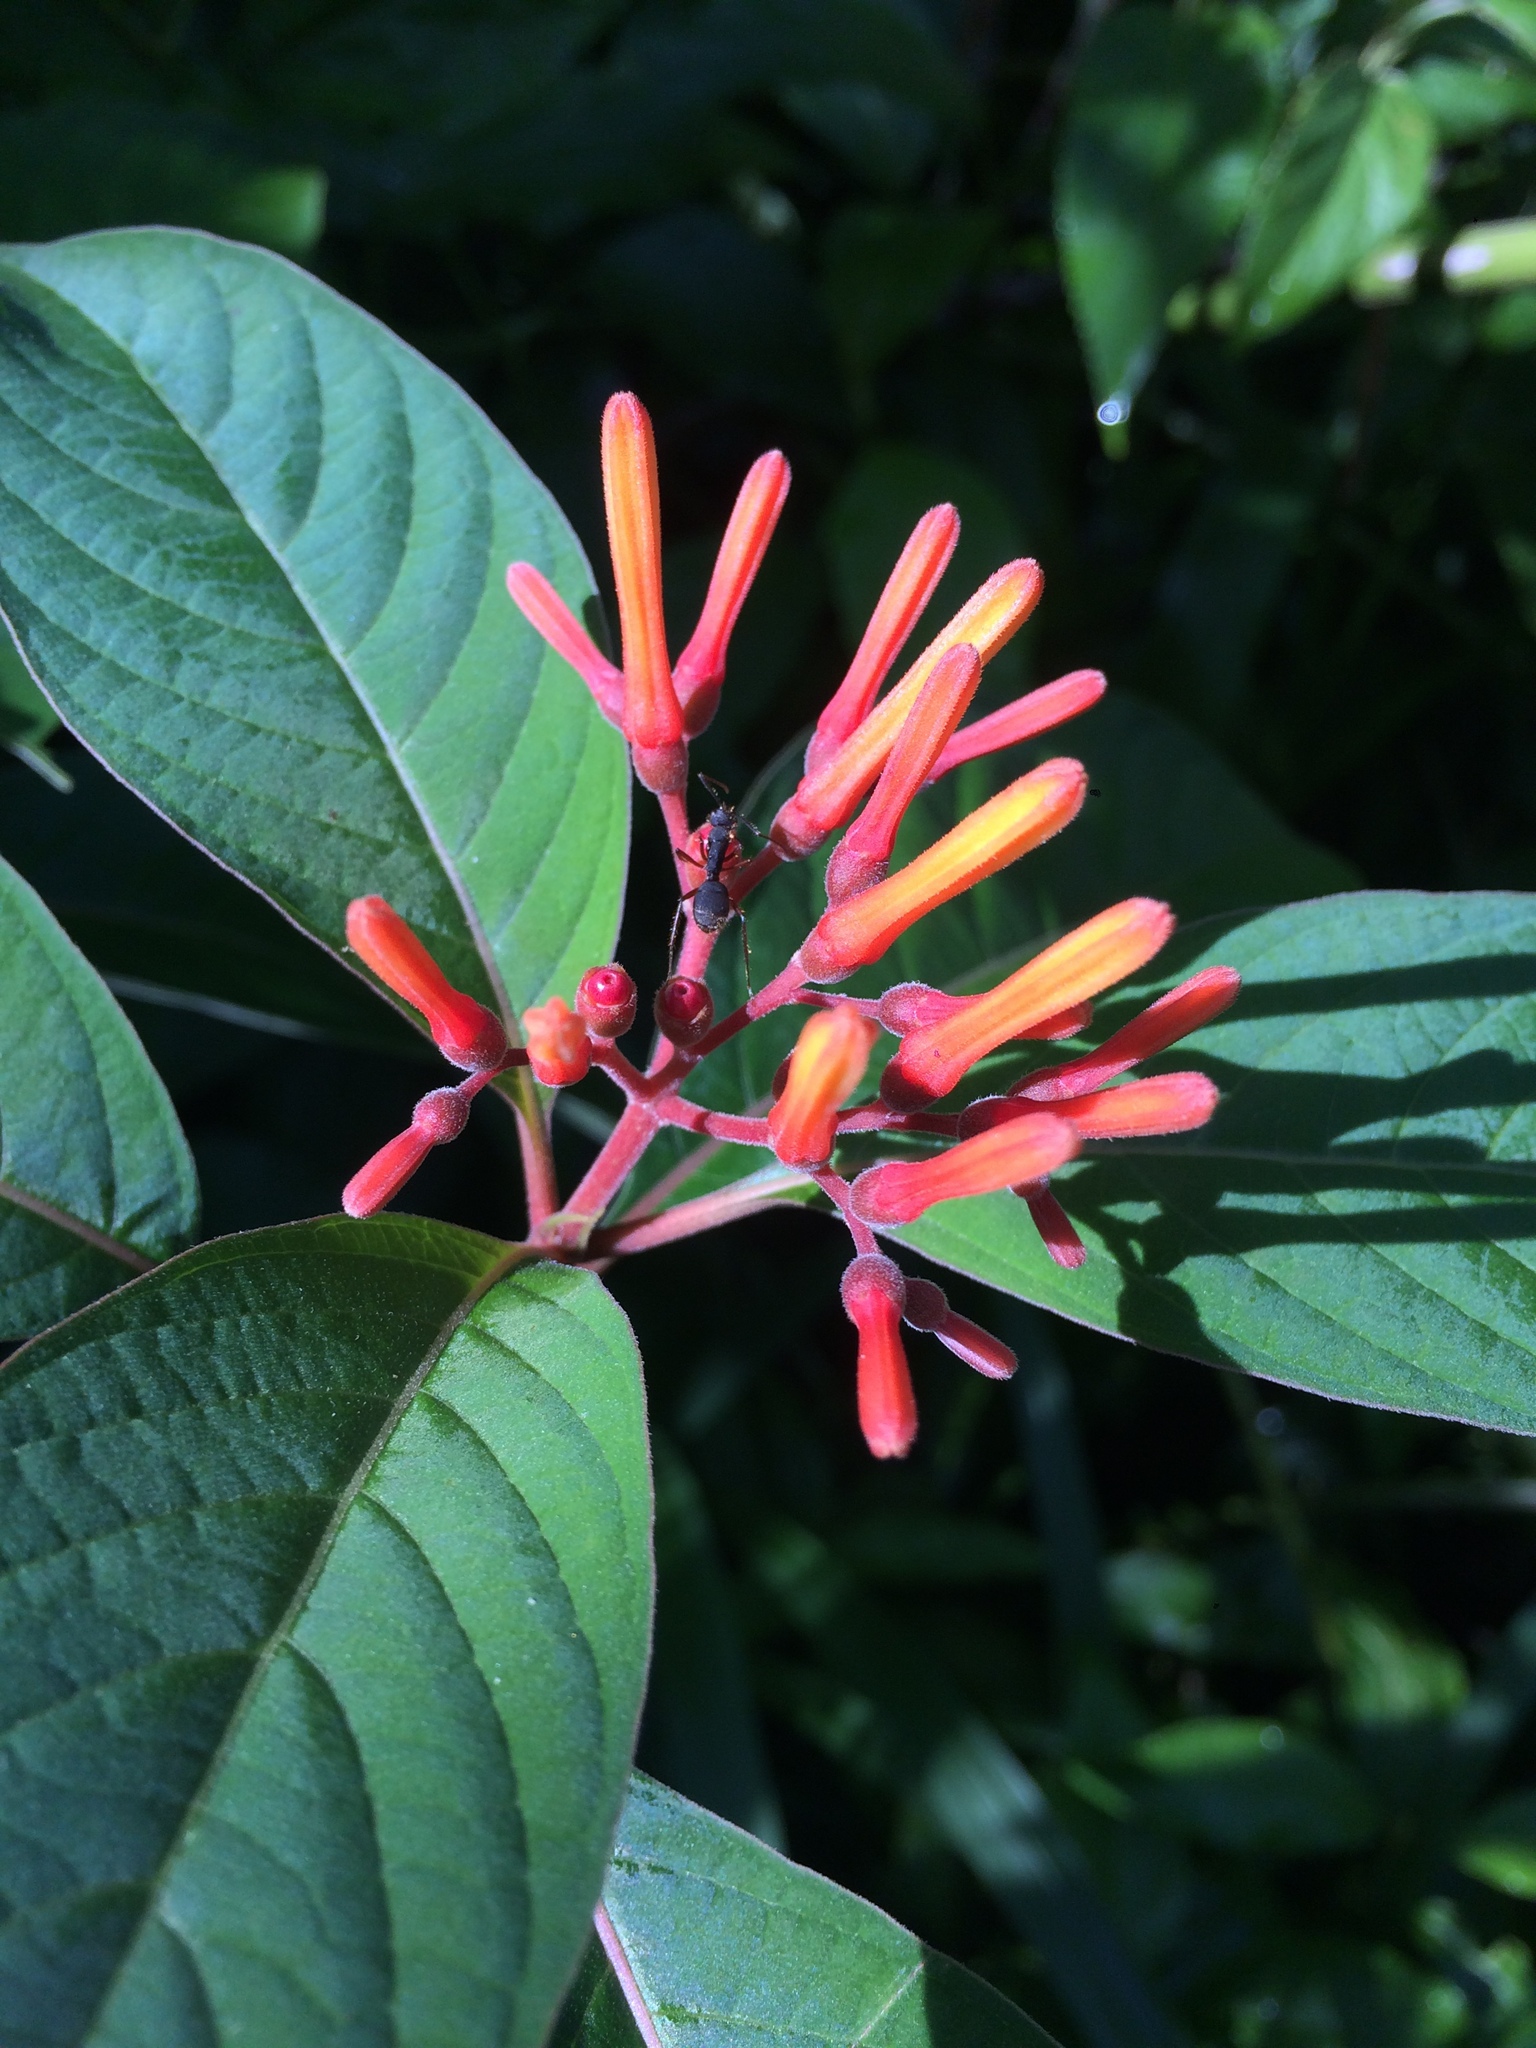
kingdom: Plantae
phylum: Tracheophyta
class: Magnoliopsida
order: Gentianales
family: Rubiaceae
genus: Hamelia
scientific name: Hamelia patens
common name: Redhead
